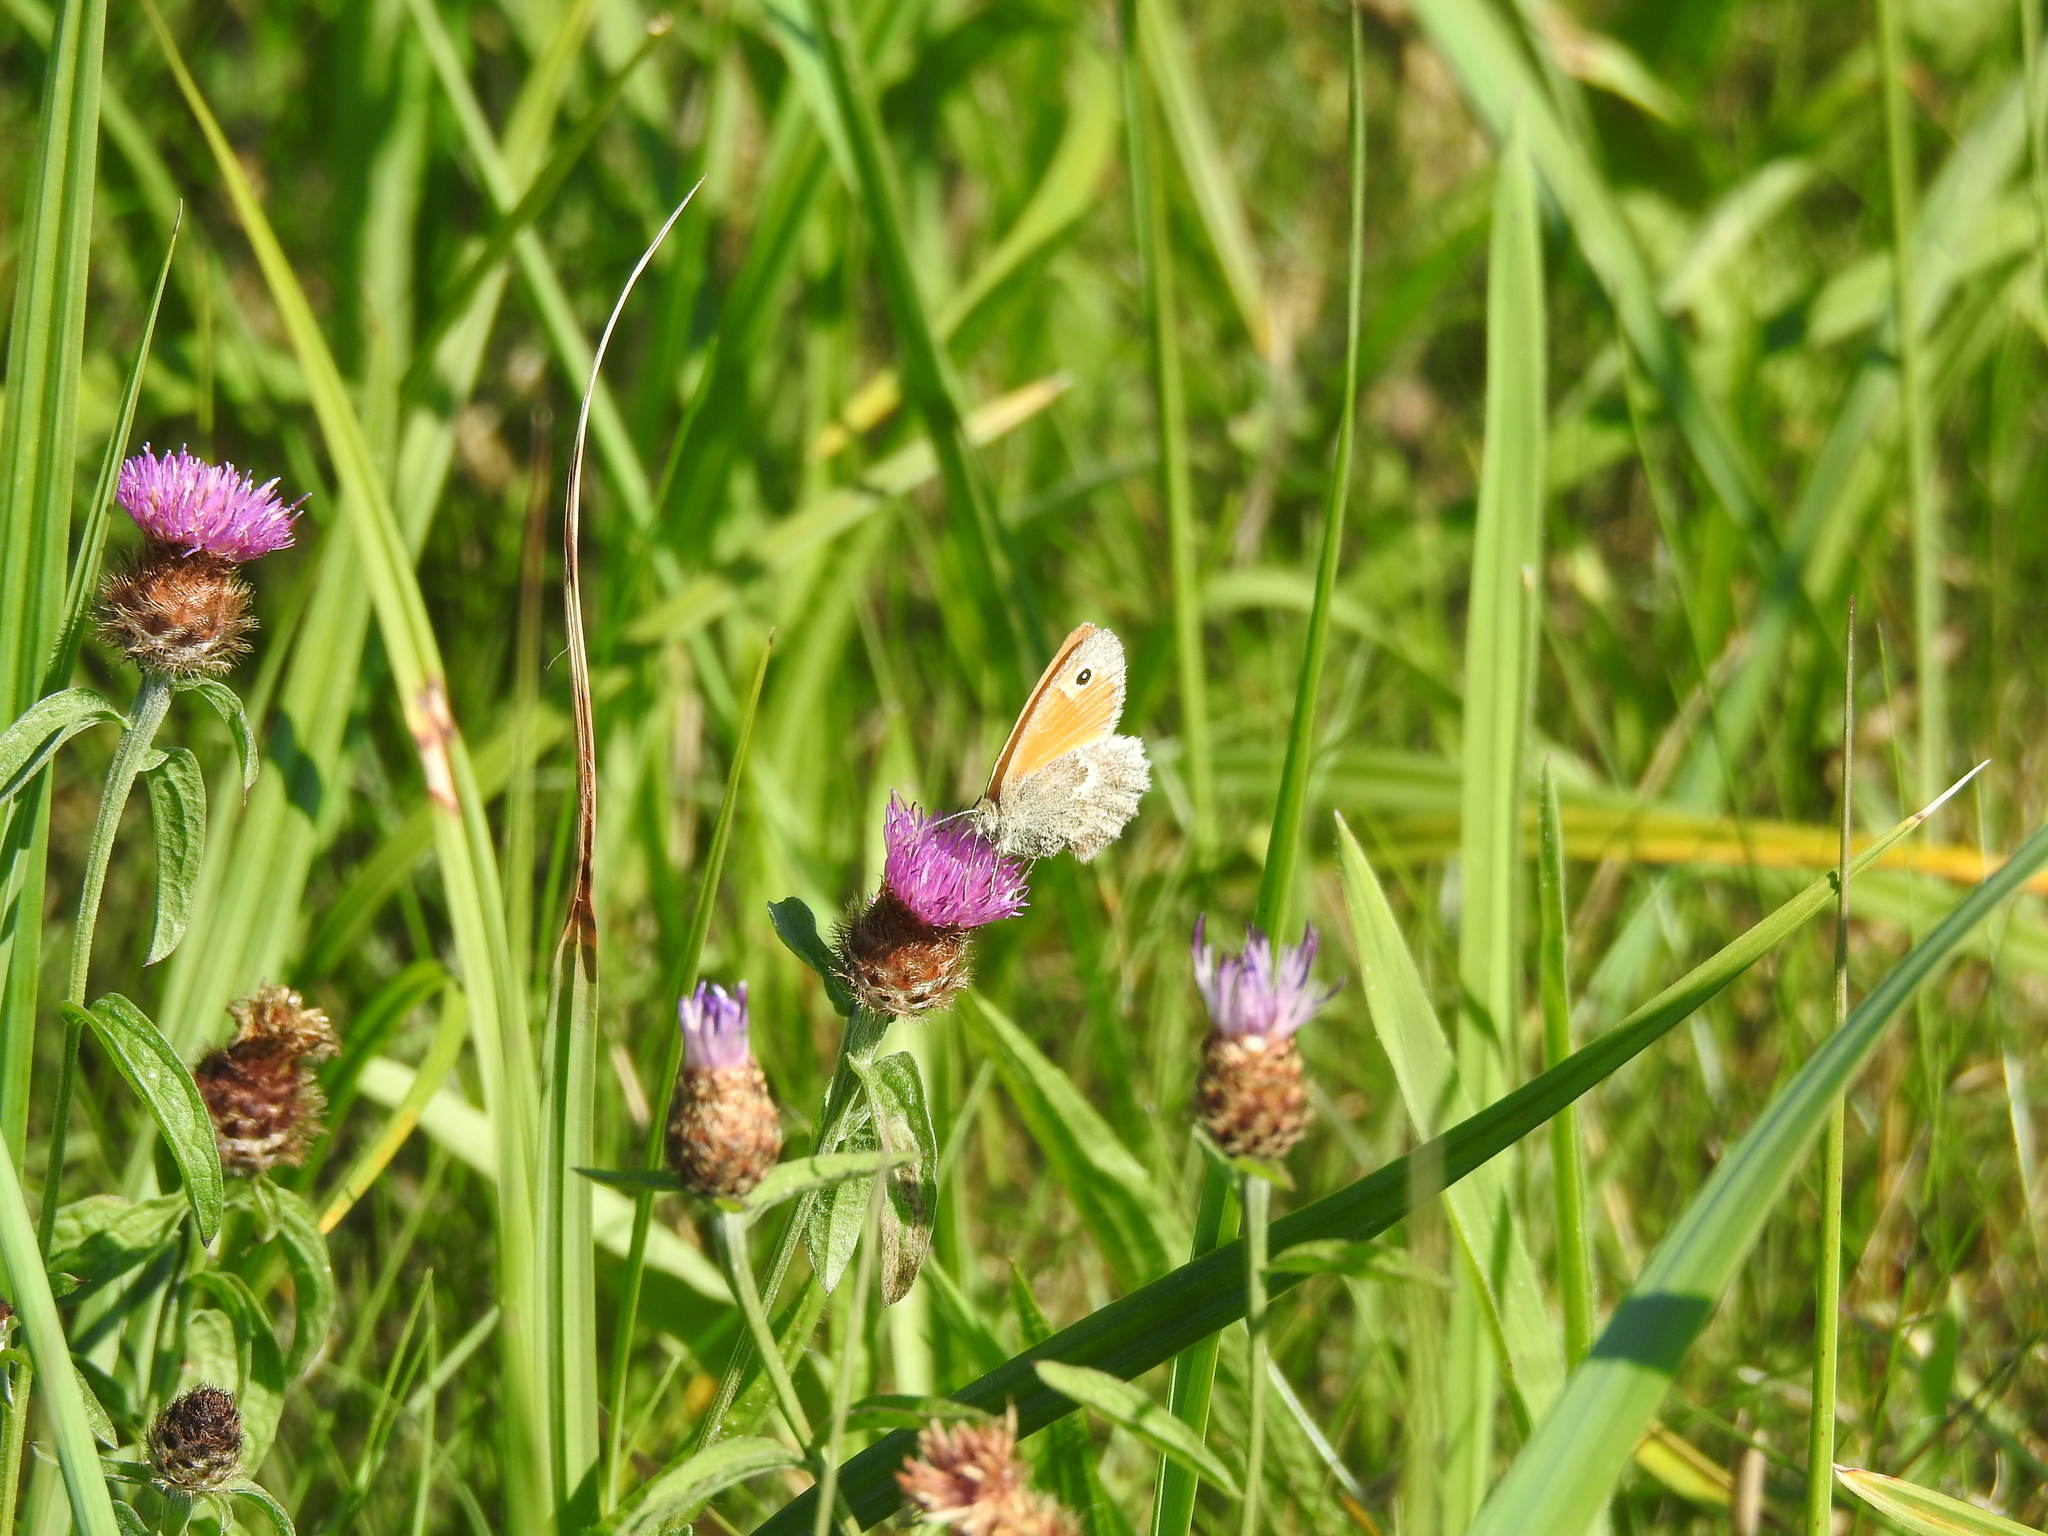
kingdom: Animalia
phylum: Arthropoda
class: Insecta
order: Lepidoptera
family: Nymphalidae
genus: Coenonympha
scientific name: Coenonympha pamphilus
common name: Small heath
